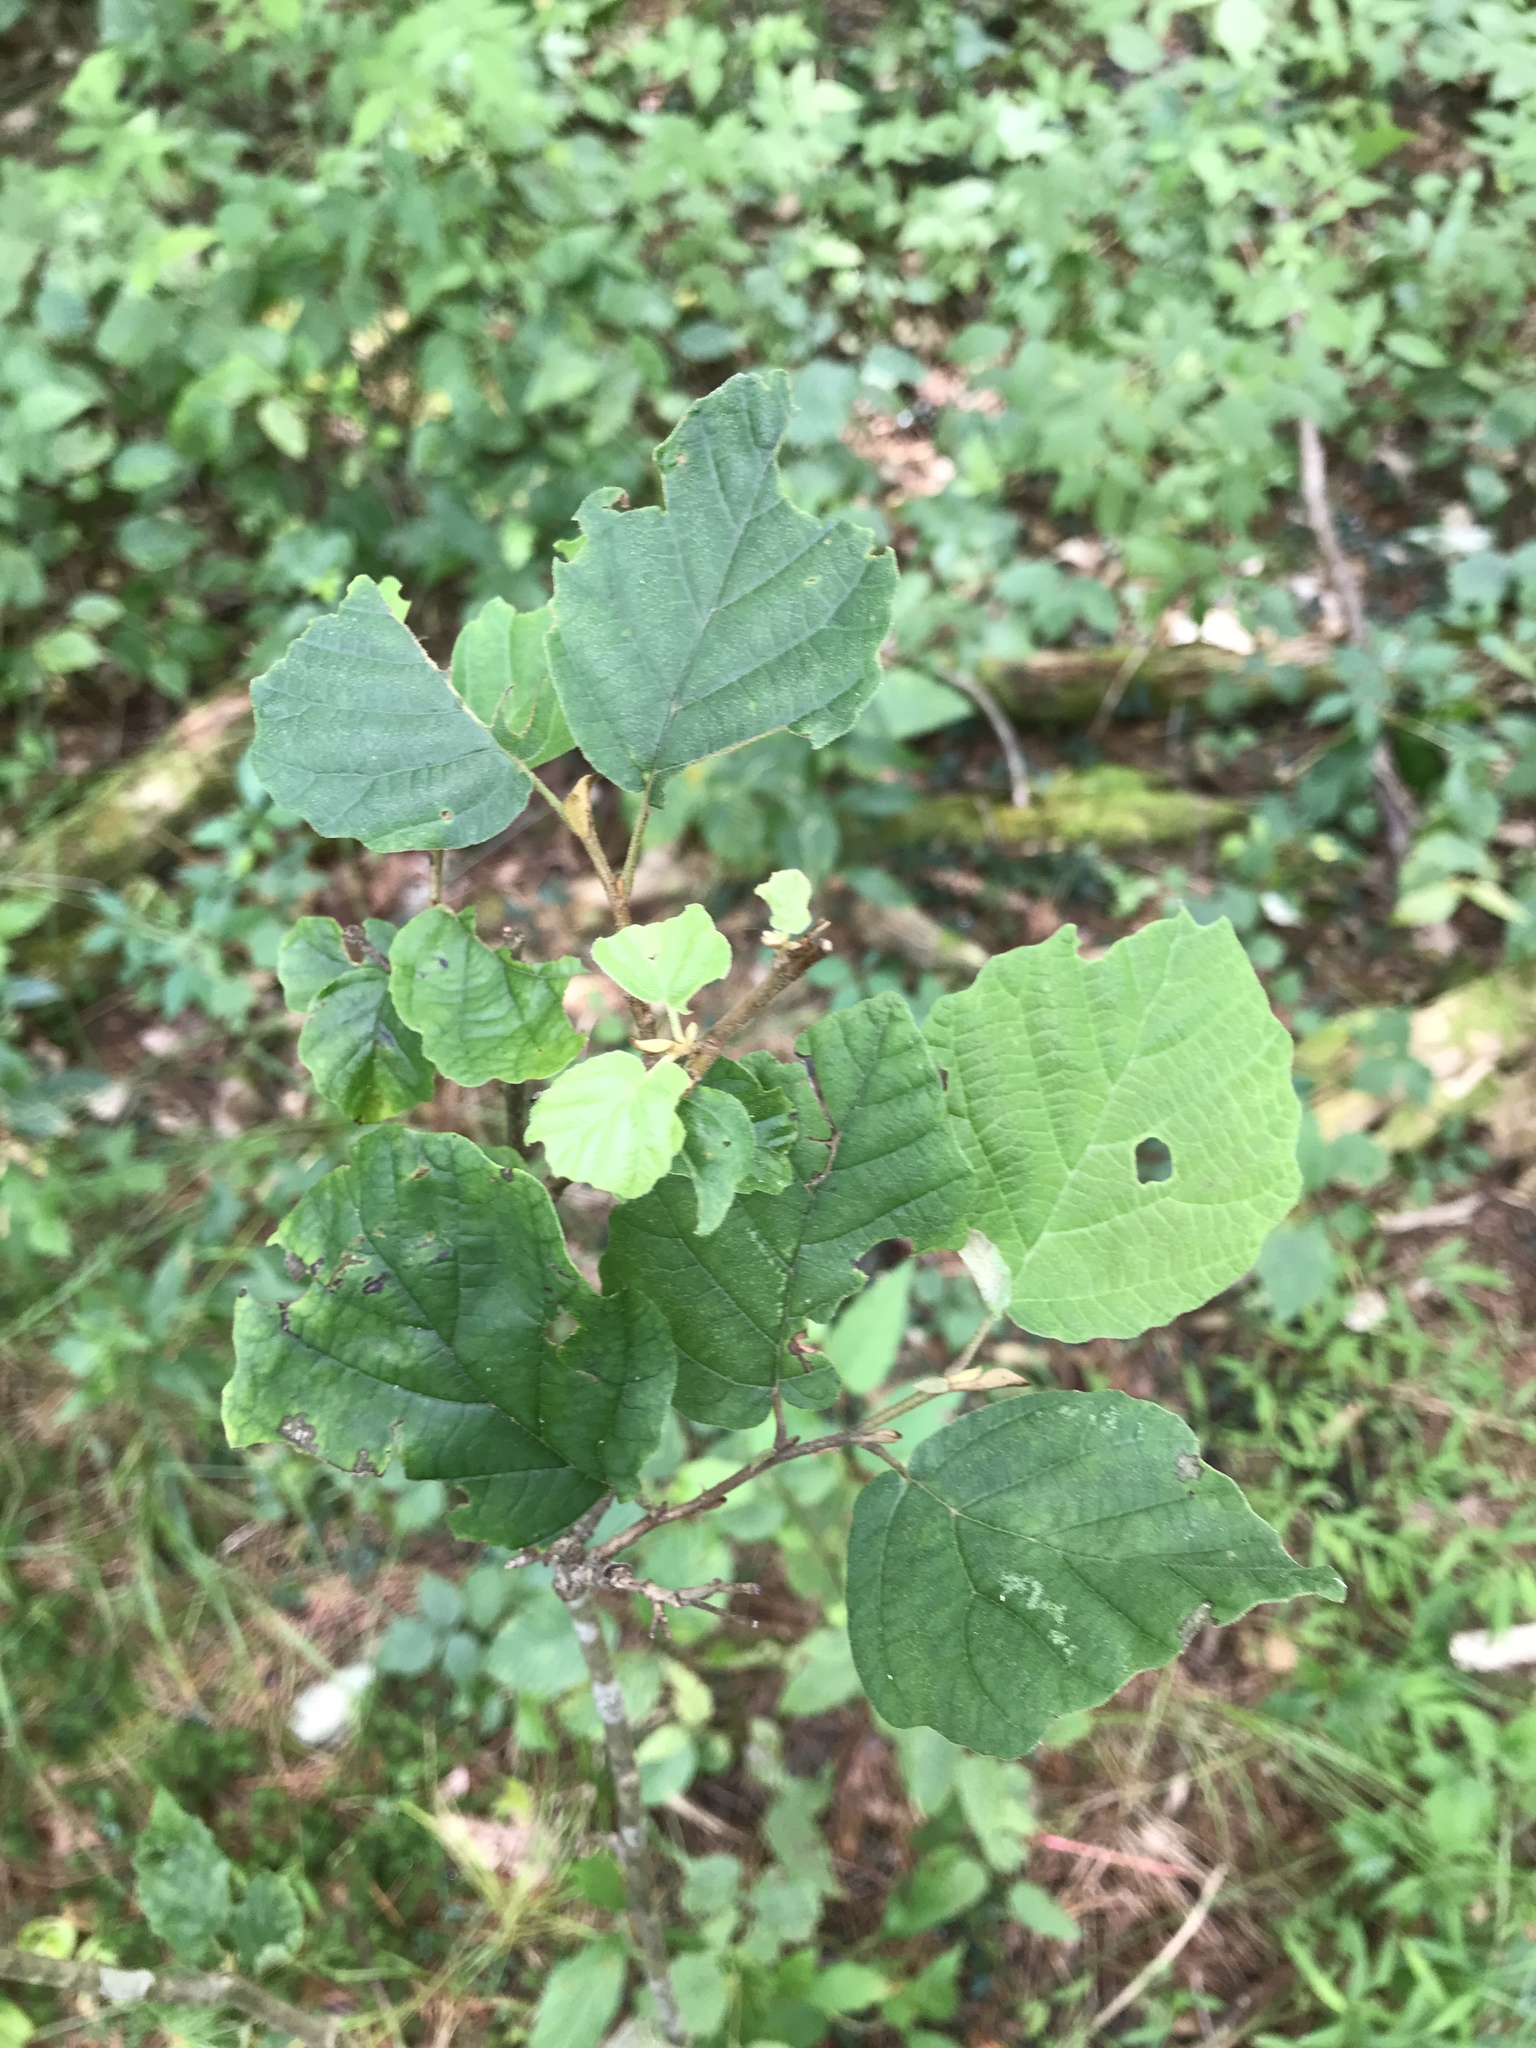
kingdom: Plantae
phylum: Tracheophyta
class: Magnoliopsida
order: Saxifragales
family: Hamamelidaceae
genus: Hamamelis
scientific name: Hamamelis virginiana
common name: Witch-hazel
